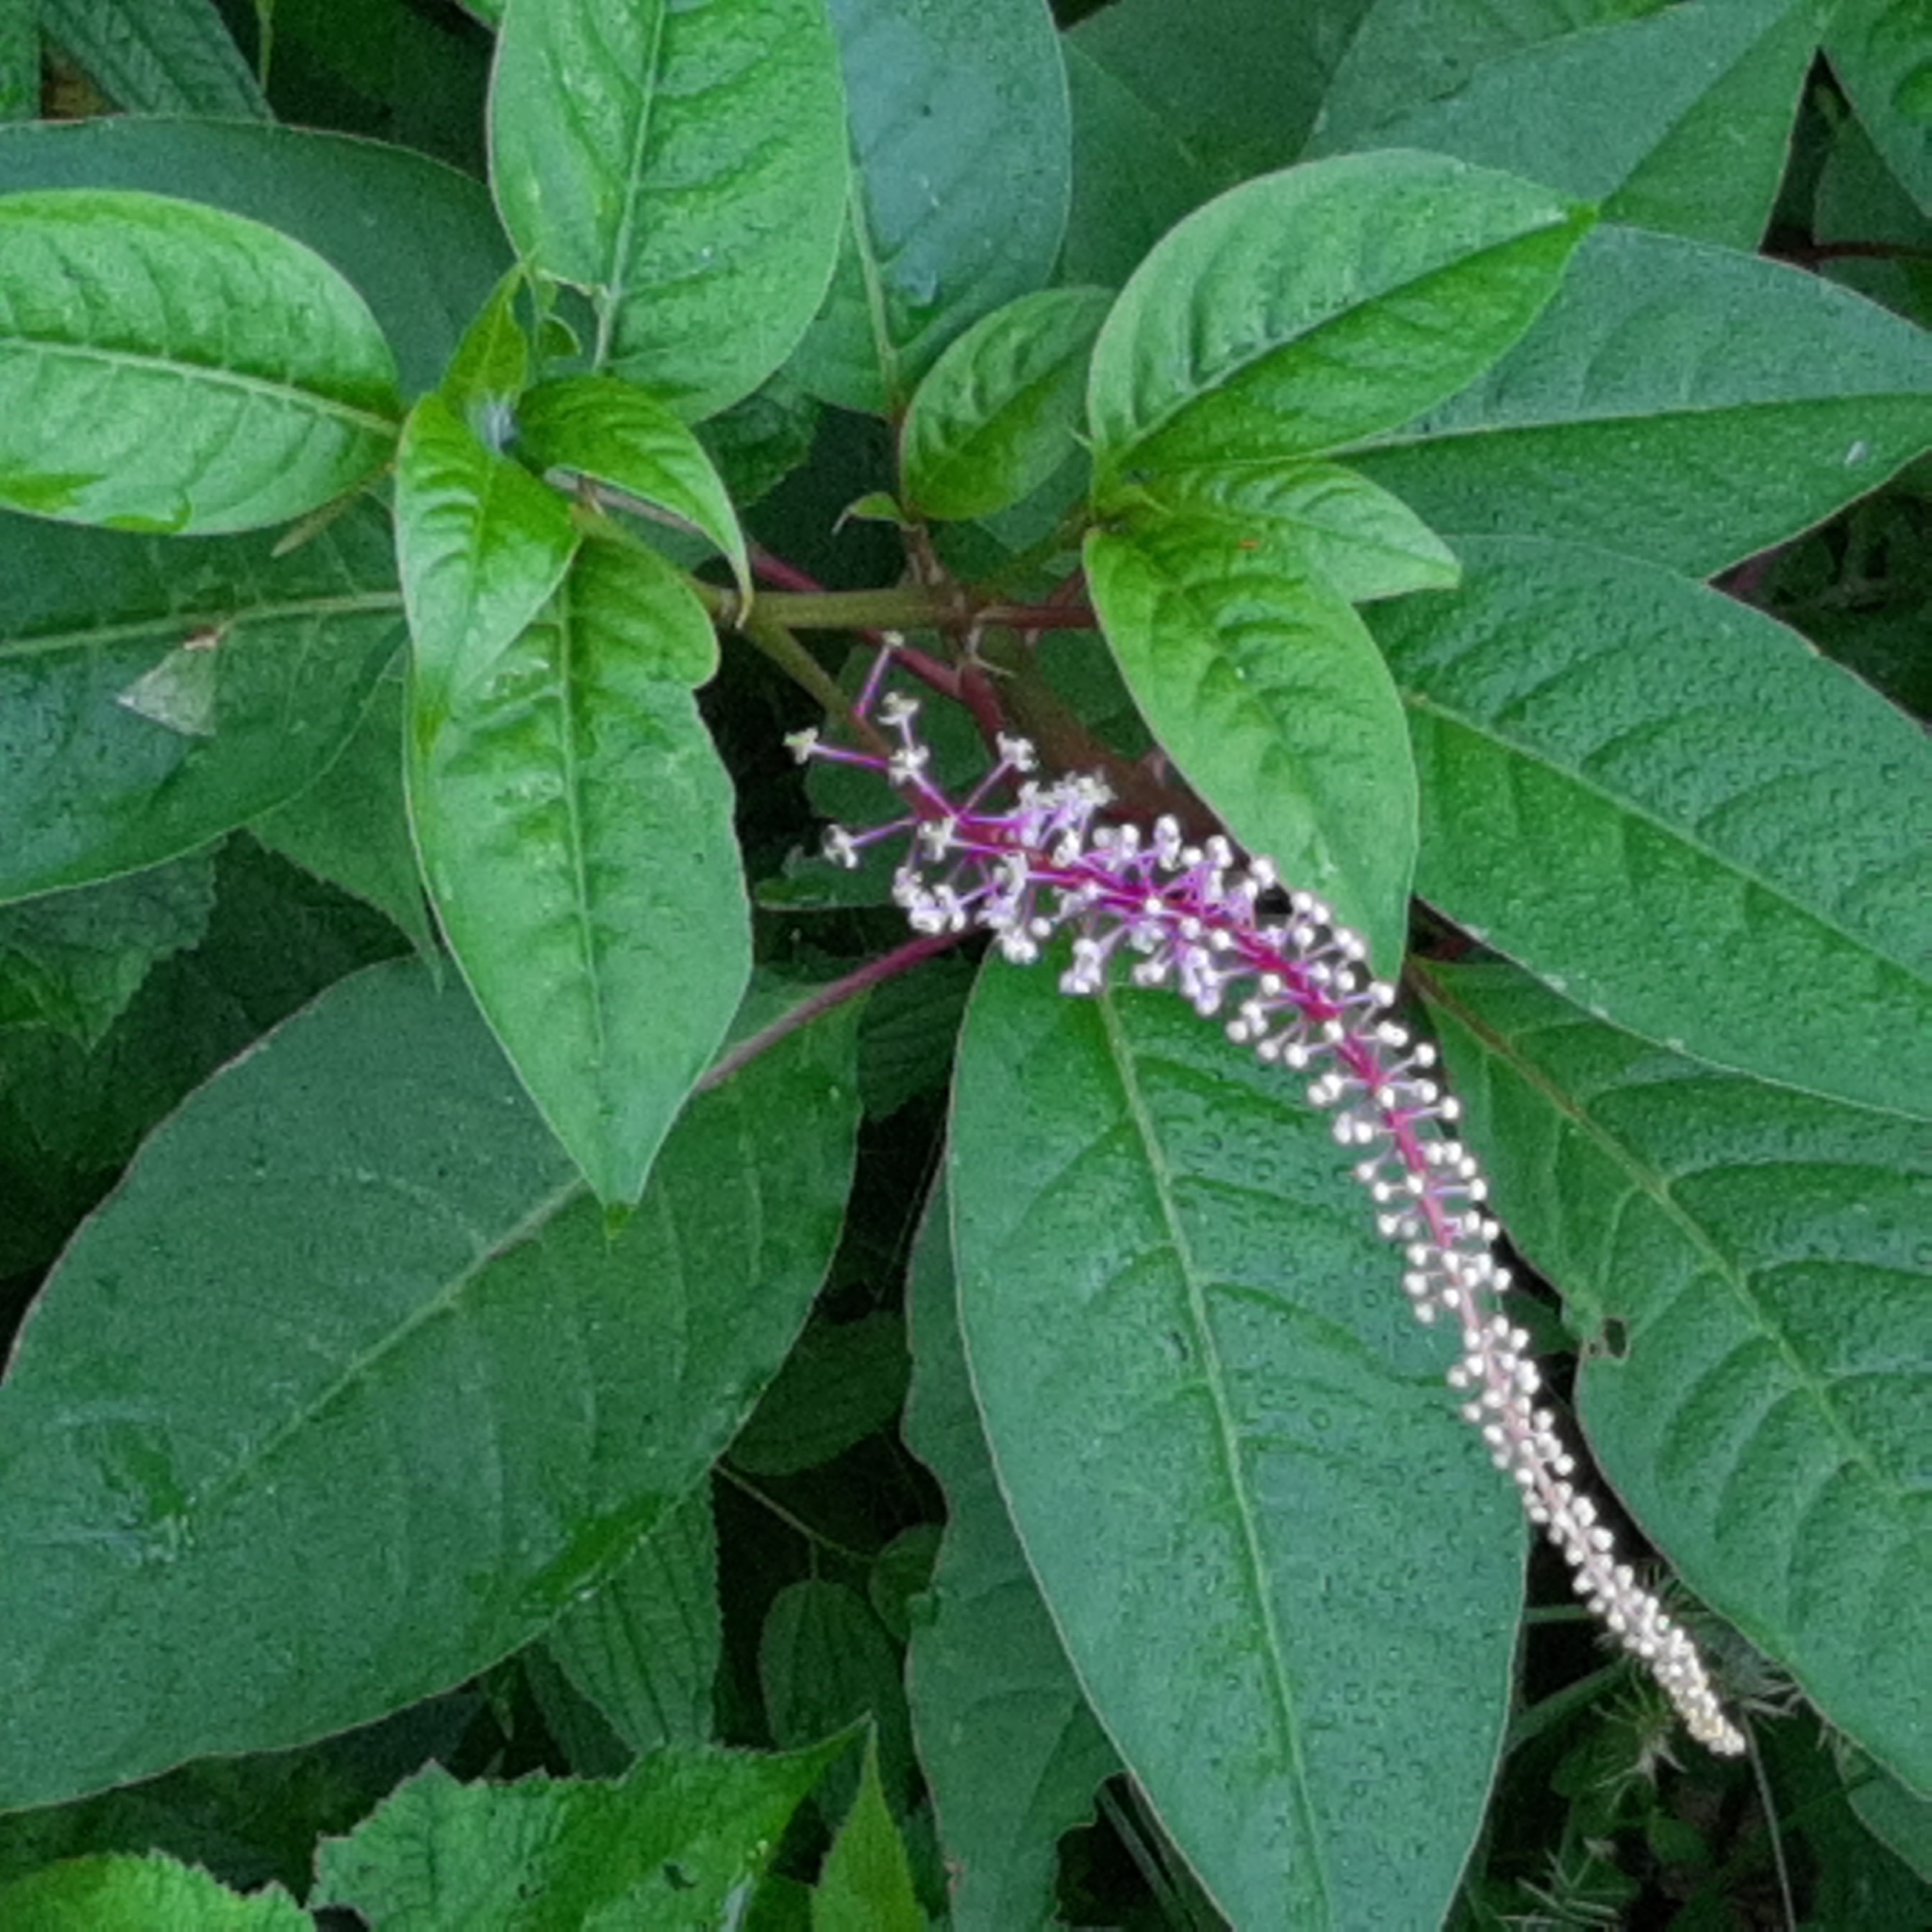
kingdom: Plantae
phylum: Tracheophyta
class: Magnoliopsida
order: Caryophyllales
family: Phytolaccaceae
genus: Phytolacca
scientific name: Phytolacca rivinoides
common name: Venezuelan pokeweed
